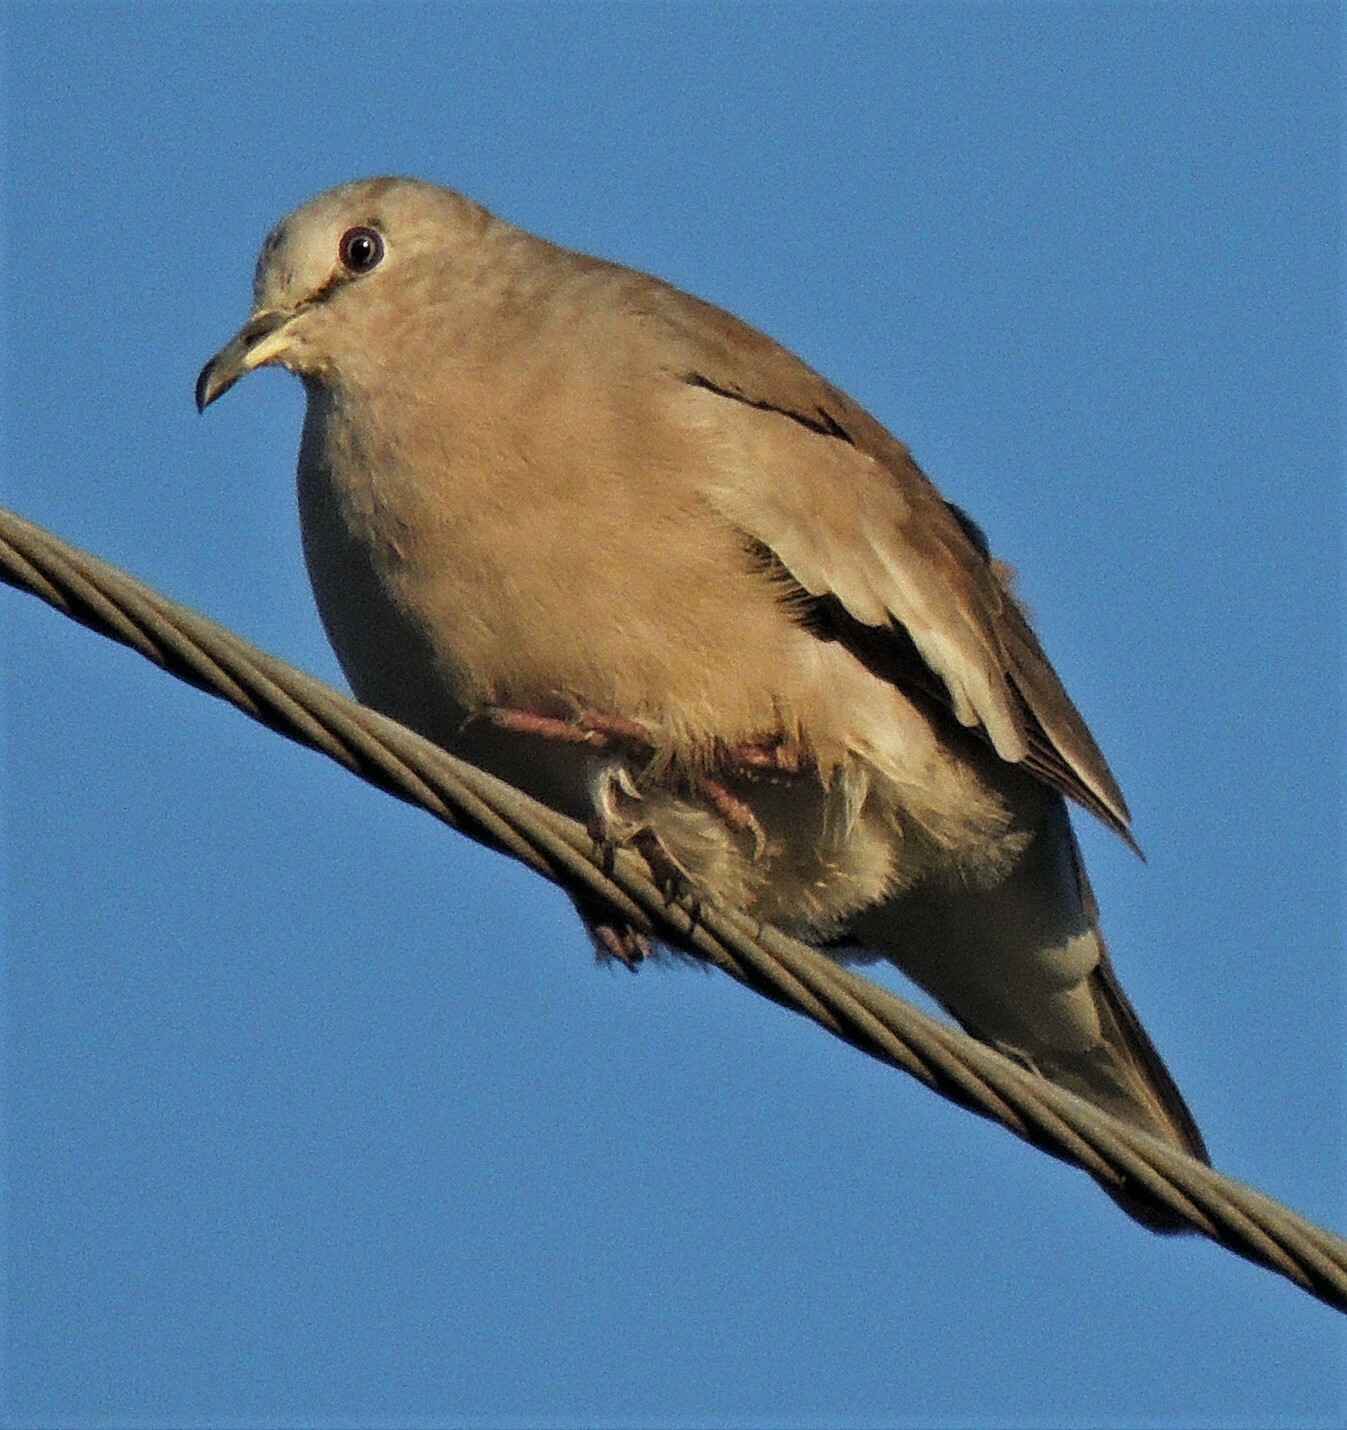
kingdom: Animalia
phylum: Chordata
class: Aves
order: Columbiformes
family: Columbidae
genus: Columbina
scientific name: Columbina picui
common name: Picui ground dove
